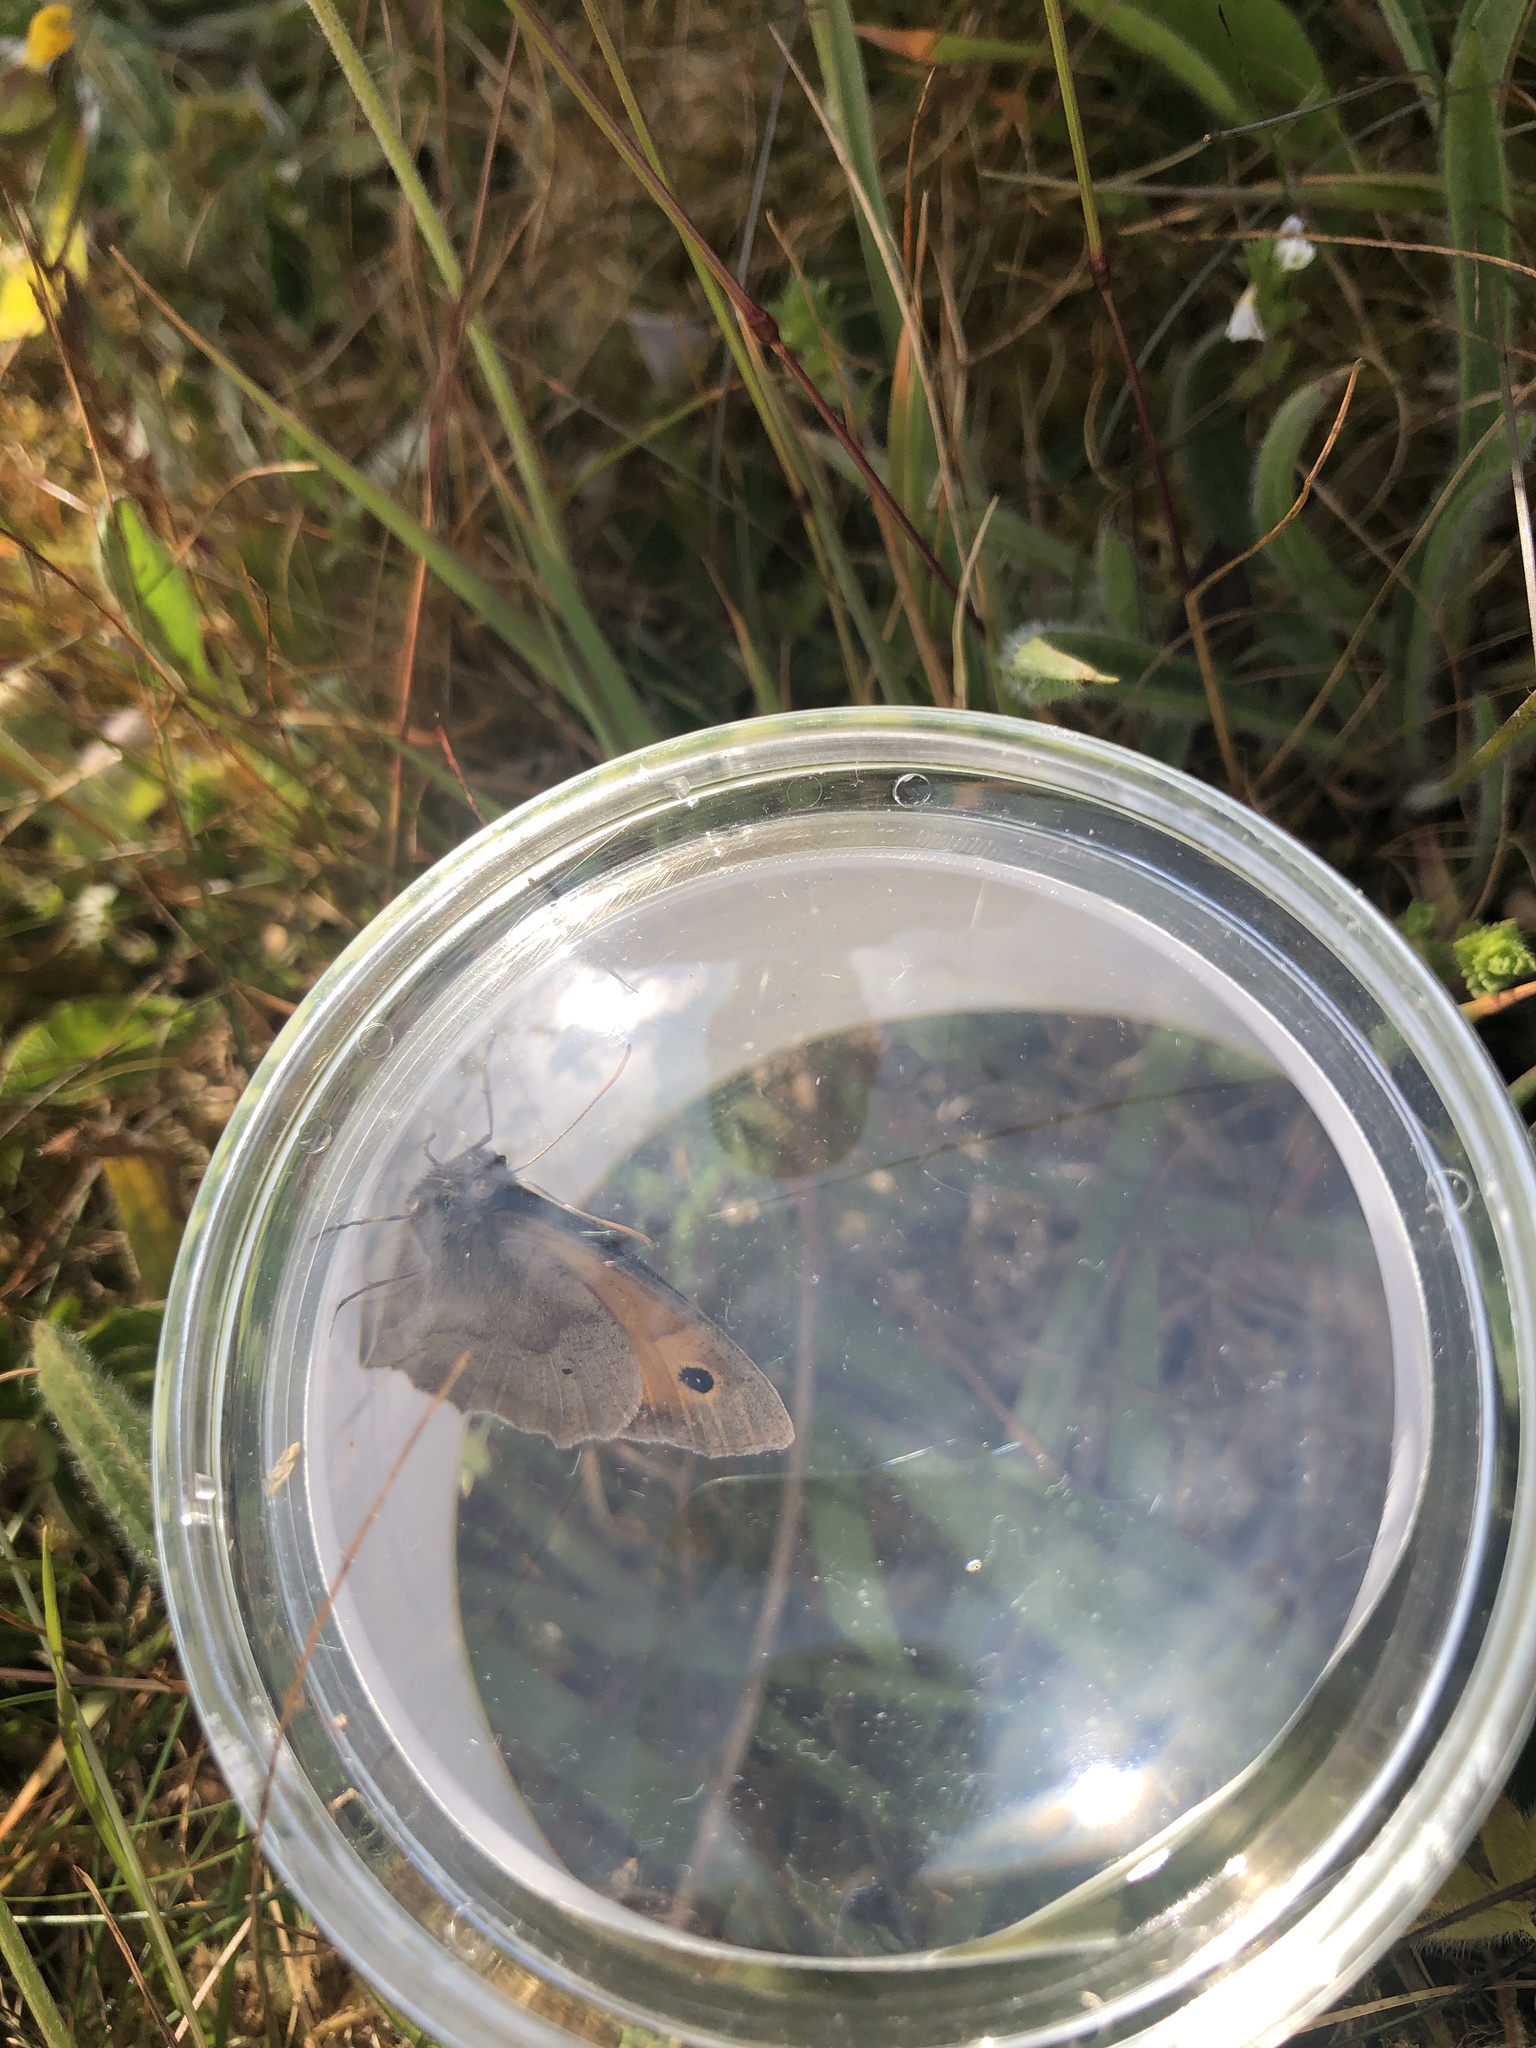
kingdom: Animalia
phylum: Arthropoda
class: Insecta
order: Lepidoptera
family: Nymphalidae
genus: Maniola
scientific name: Maniola jurtina
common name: Meadow brown
